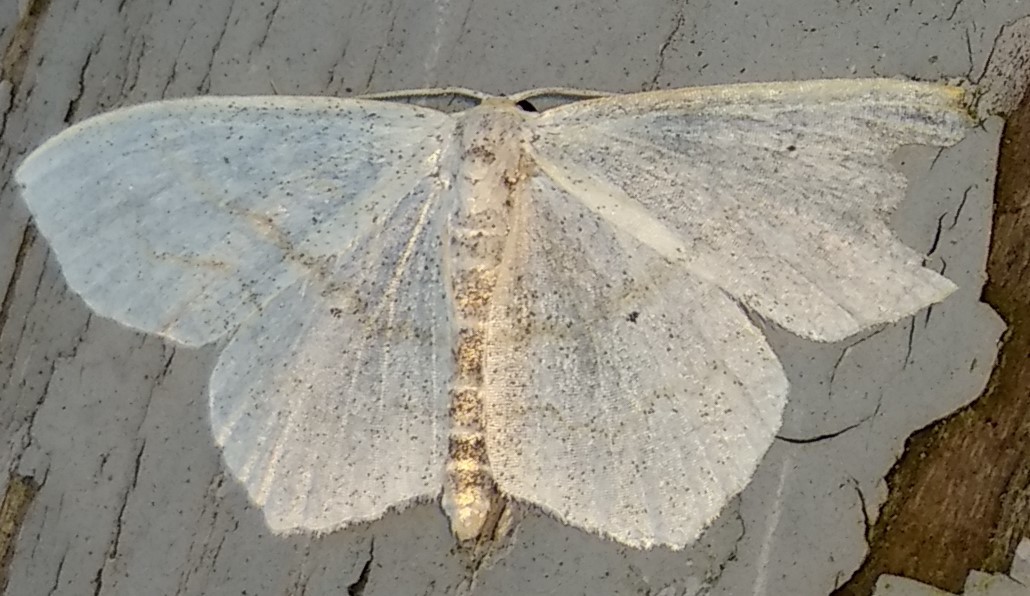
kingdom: Animalia
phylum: Arthropoda
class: Insecta
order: Lepidoptera
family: Geometridae
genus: Scopula
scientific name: Scopula limboundata
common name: Large lace border
